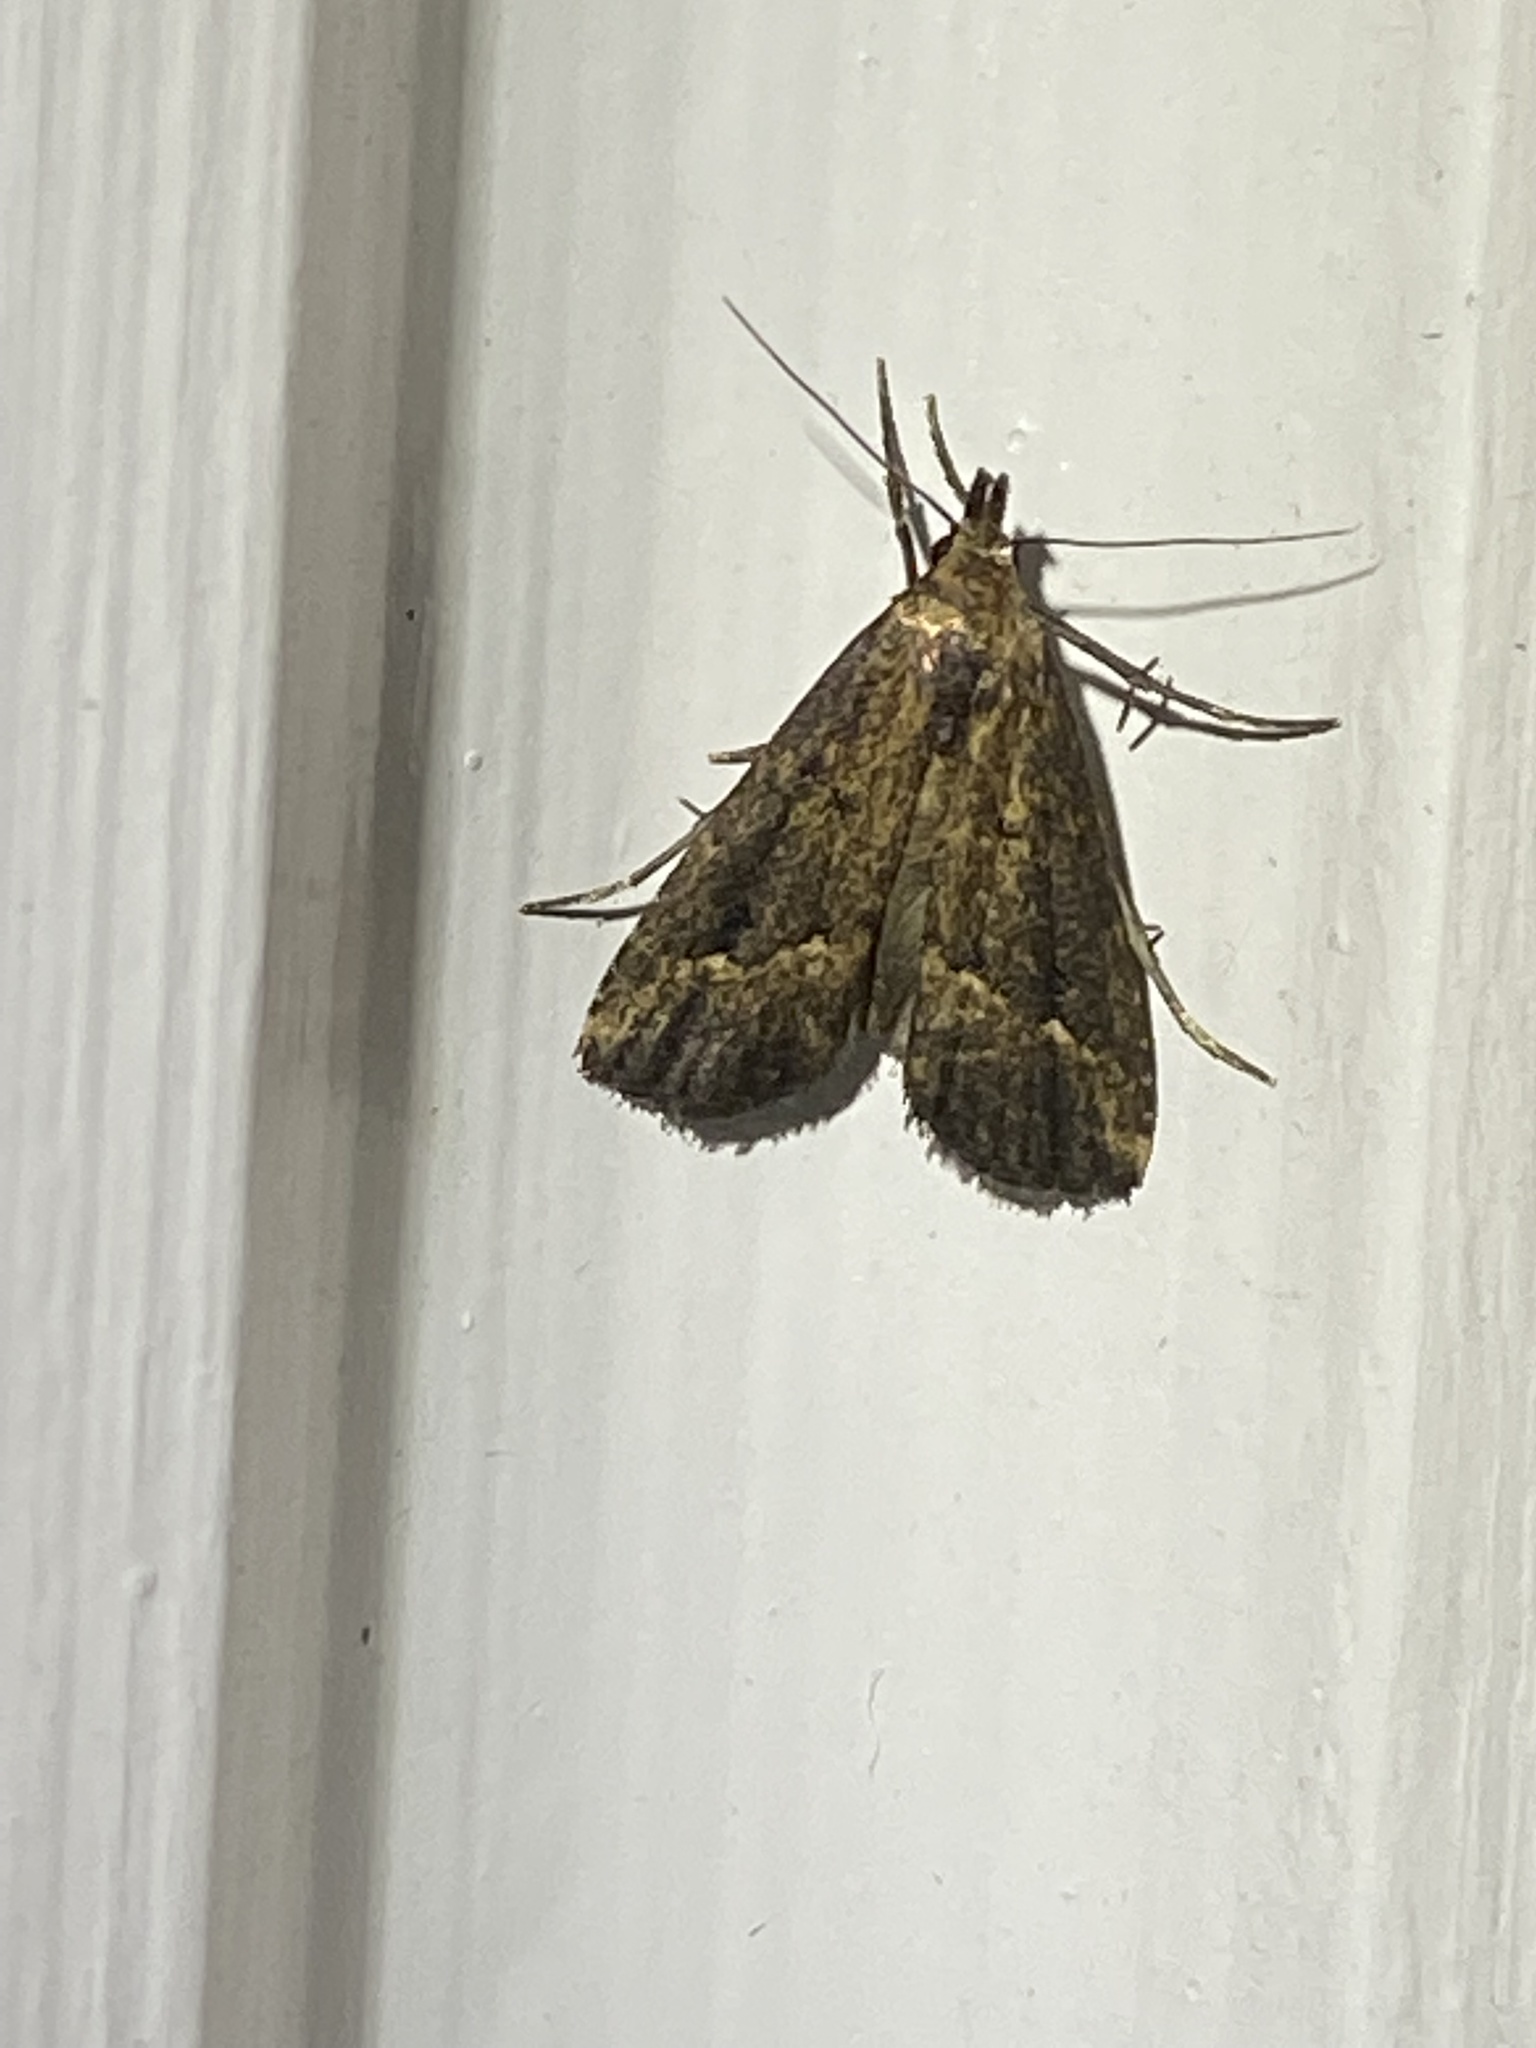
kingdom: Animalia
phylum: Arthropoda
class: Insecta
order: Lepidoptera
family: Erebidae
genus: Schrankia
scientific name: Schrankia
